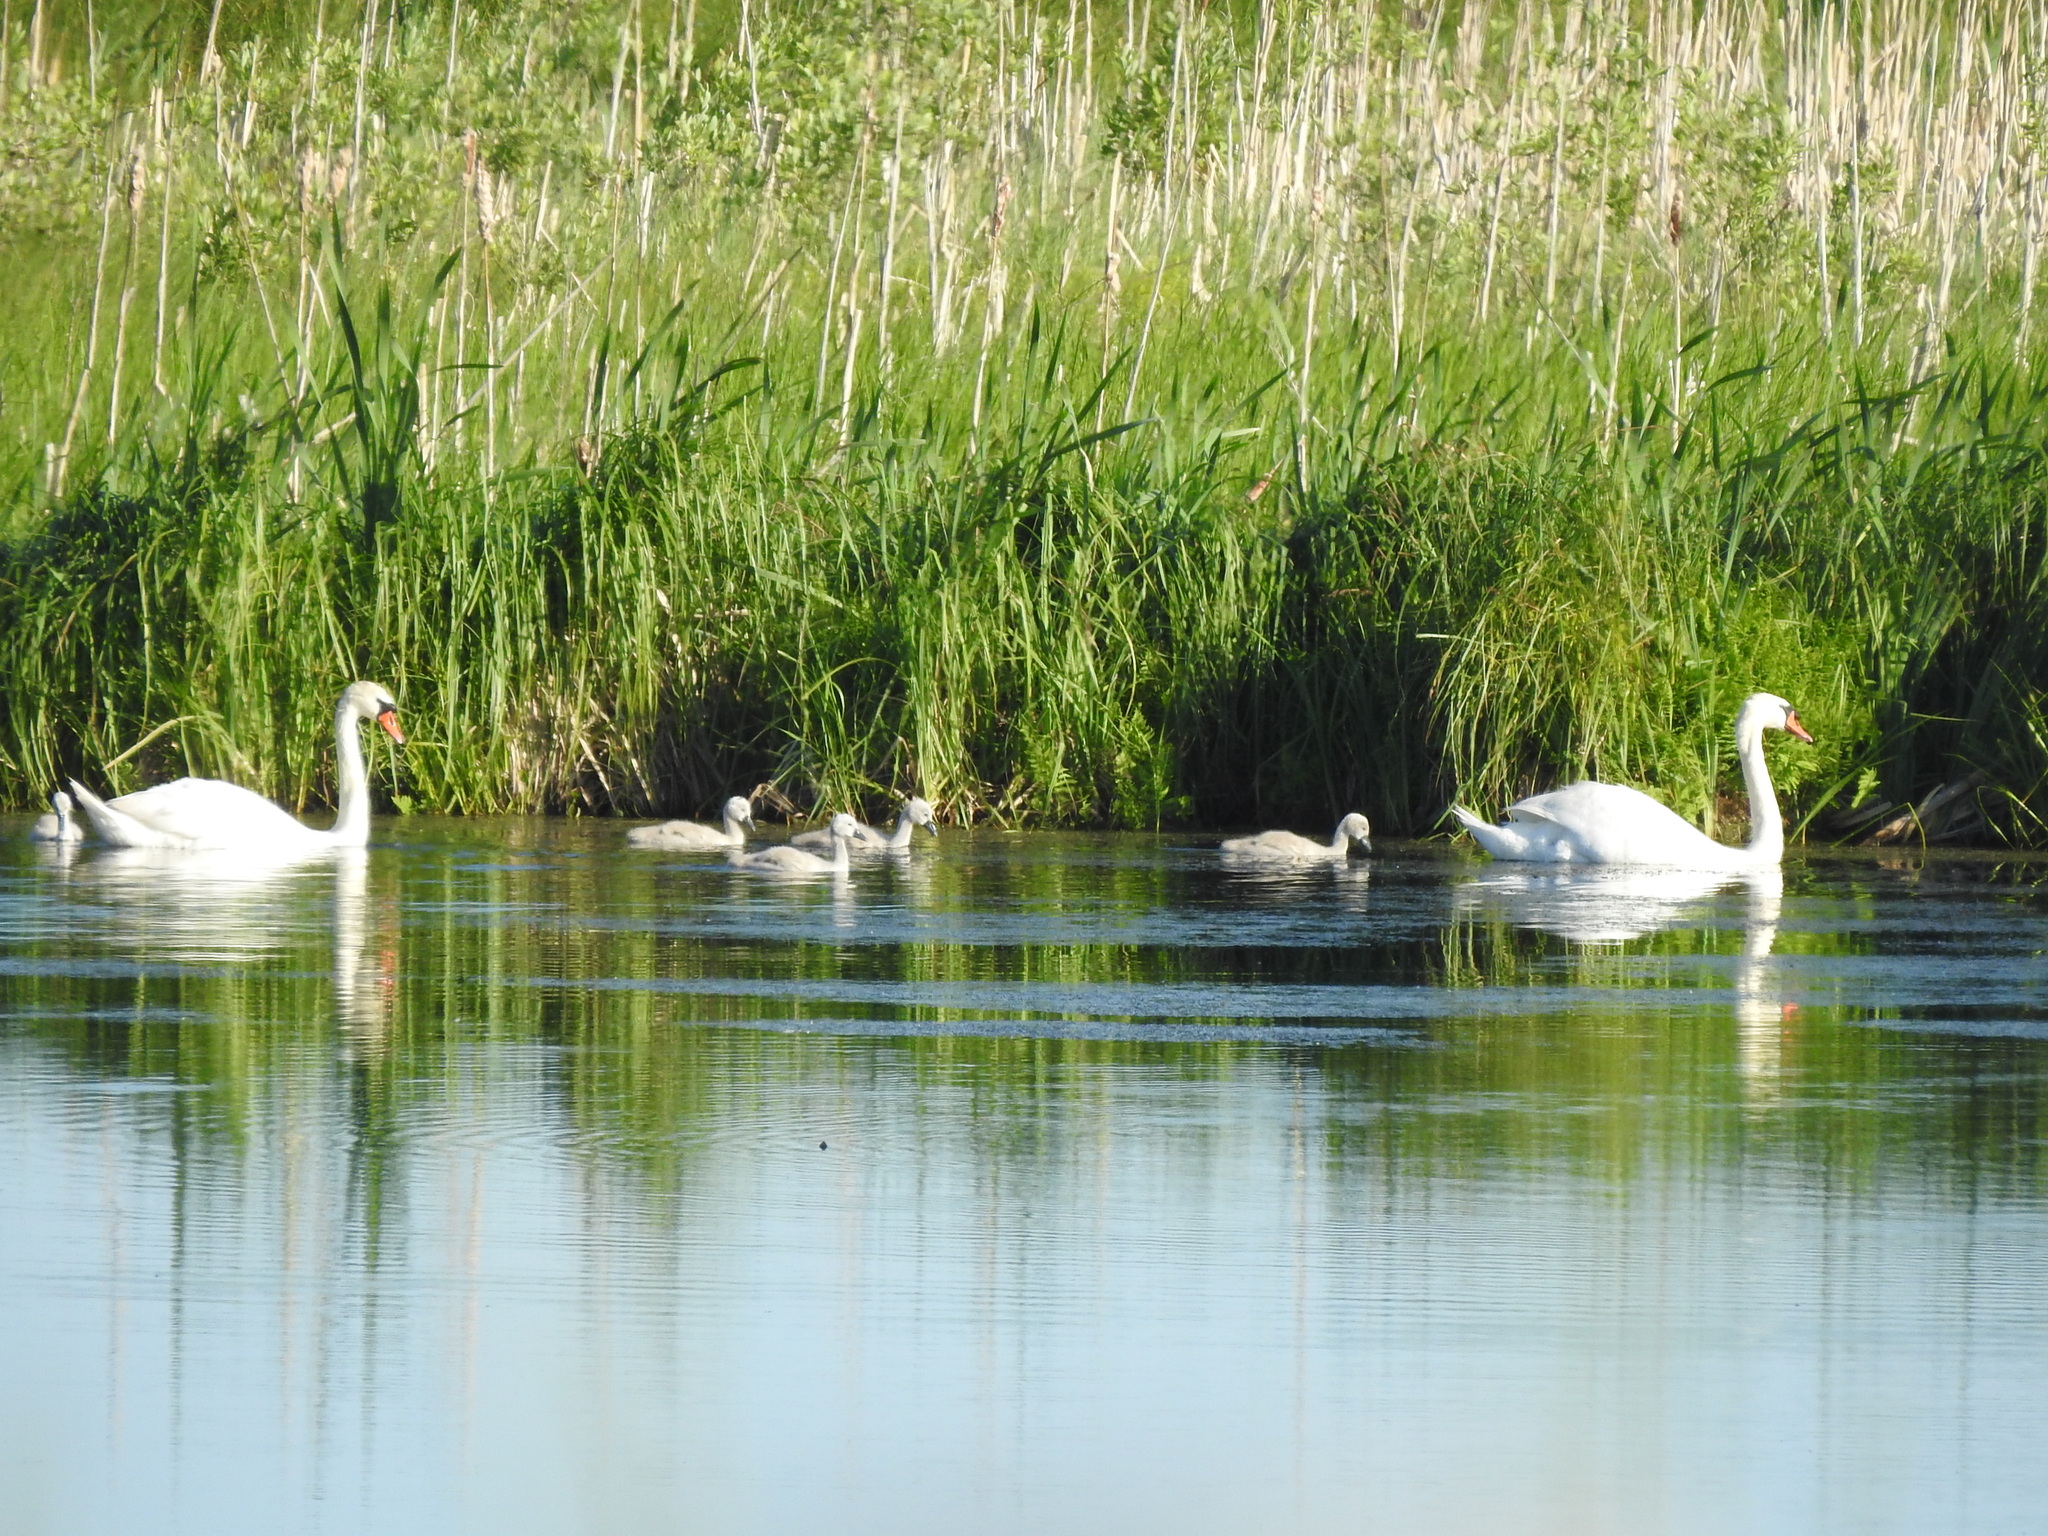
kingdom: Animalia
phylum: Chordata
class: Aves
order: Anseriformes
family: Anatidae
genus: Cygnus
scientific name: Cygnus olor
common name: Mute swan
